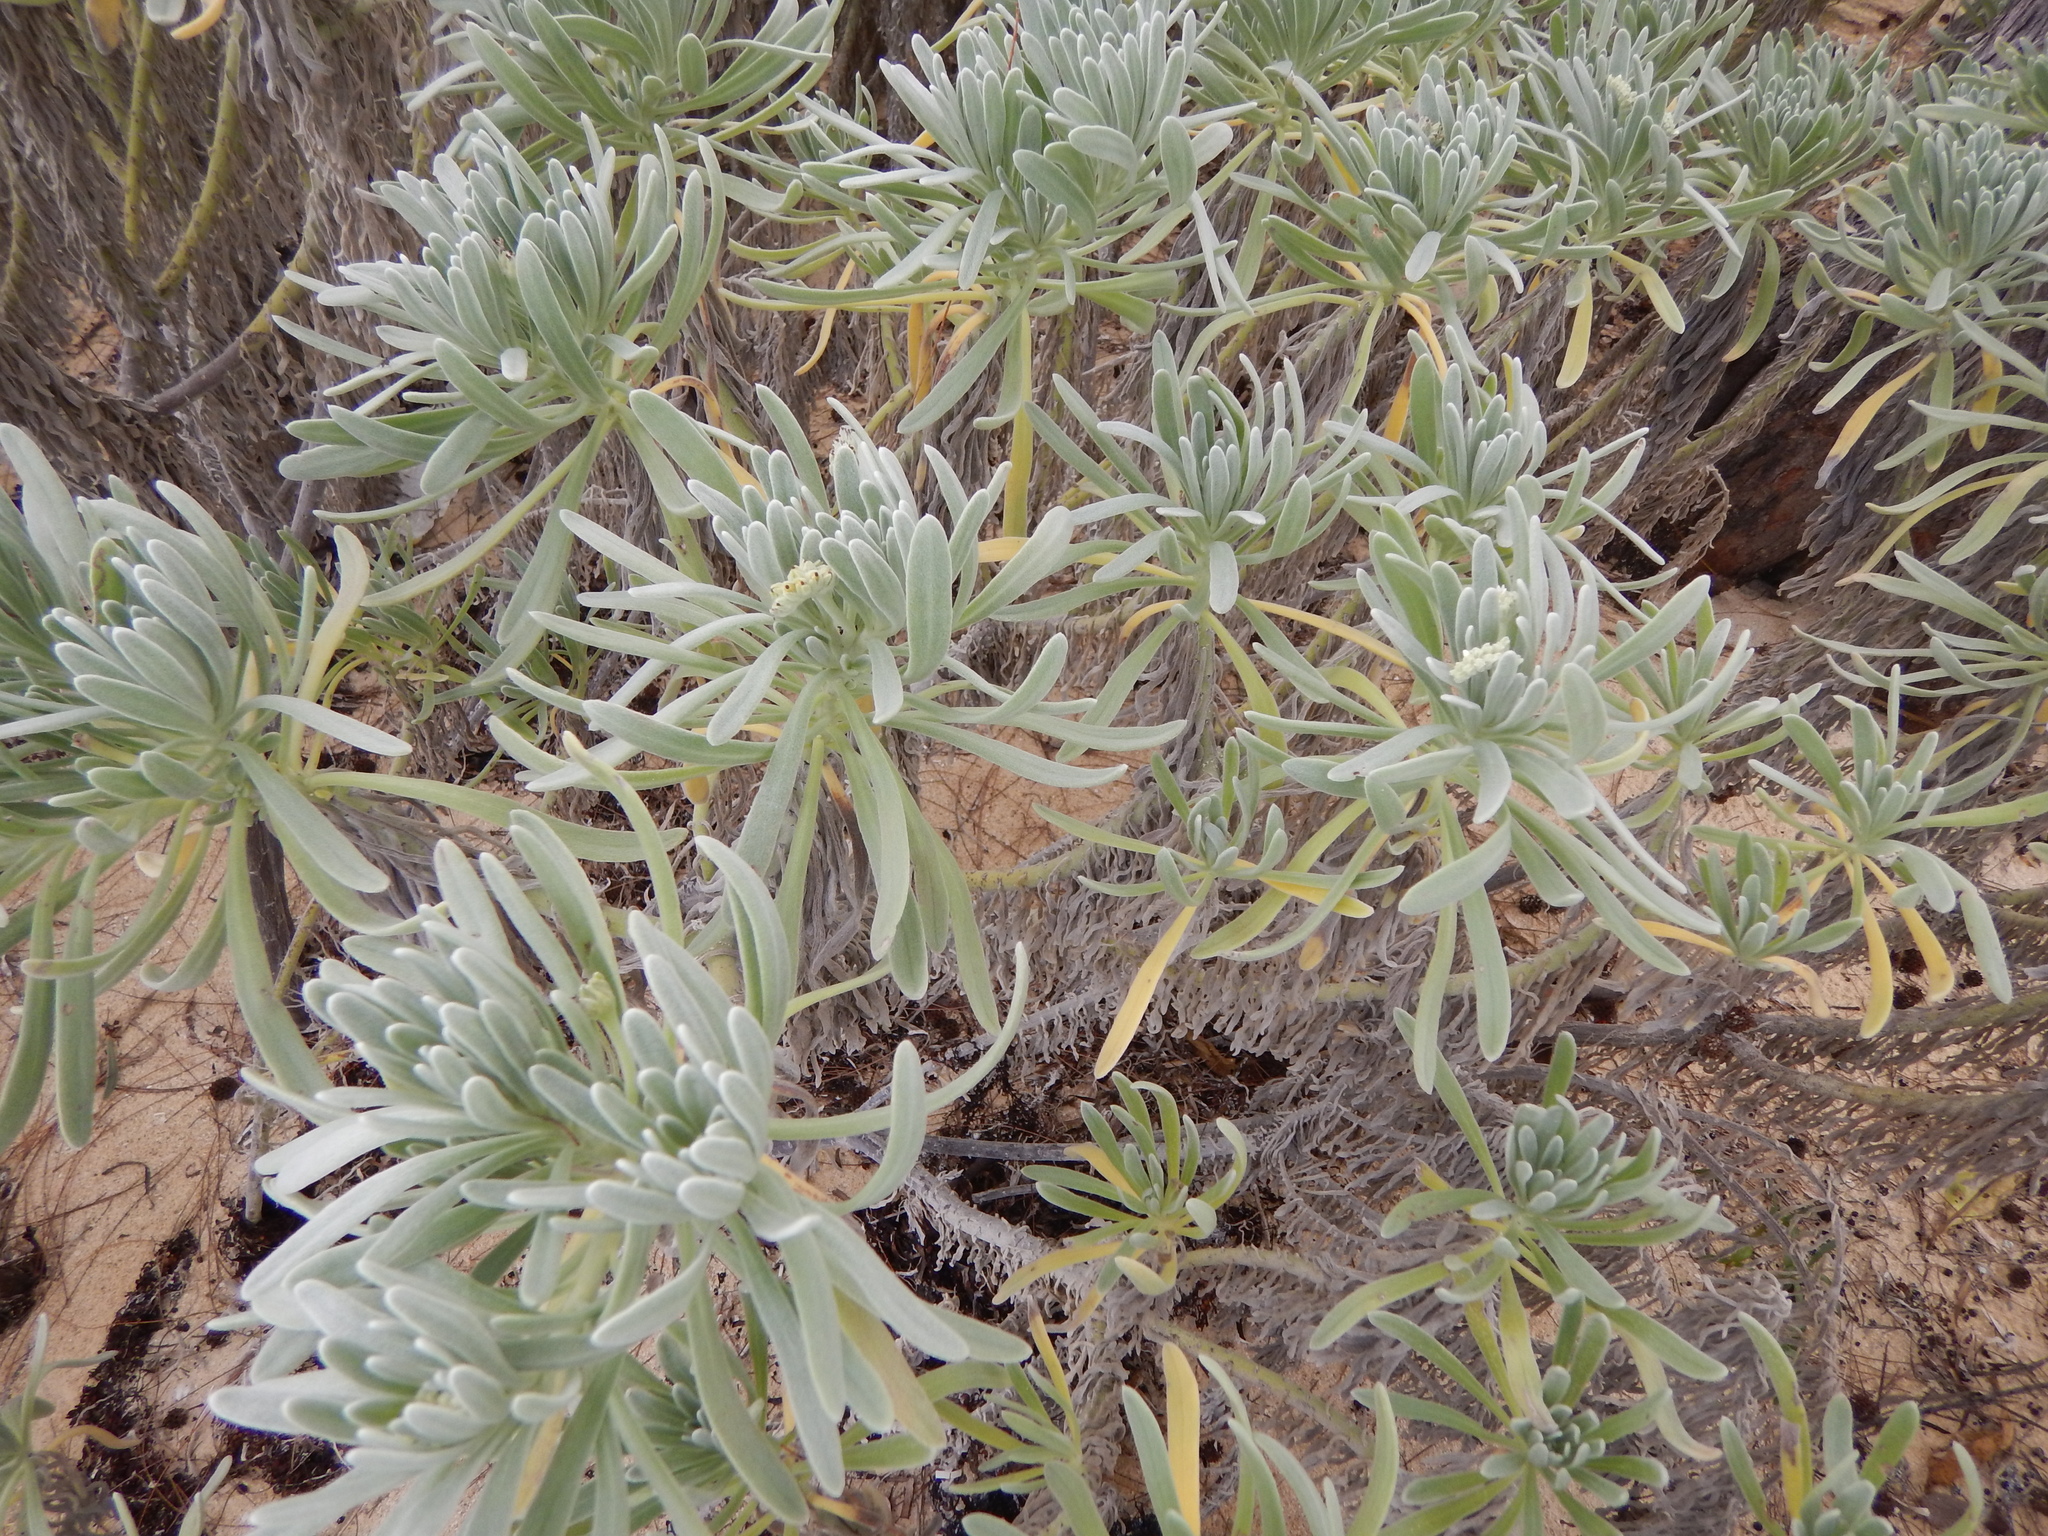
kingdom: Plantae
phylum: Tracheophyta
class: Magnoliopsida
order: Boraginales
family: Heliotropiaceae
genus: Tournefortia
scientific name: Tournefortia gnaphalodes
